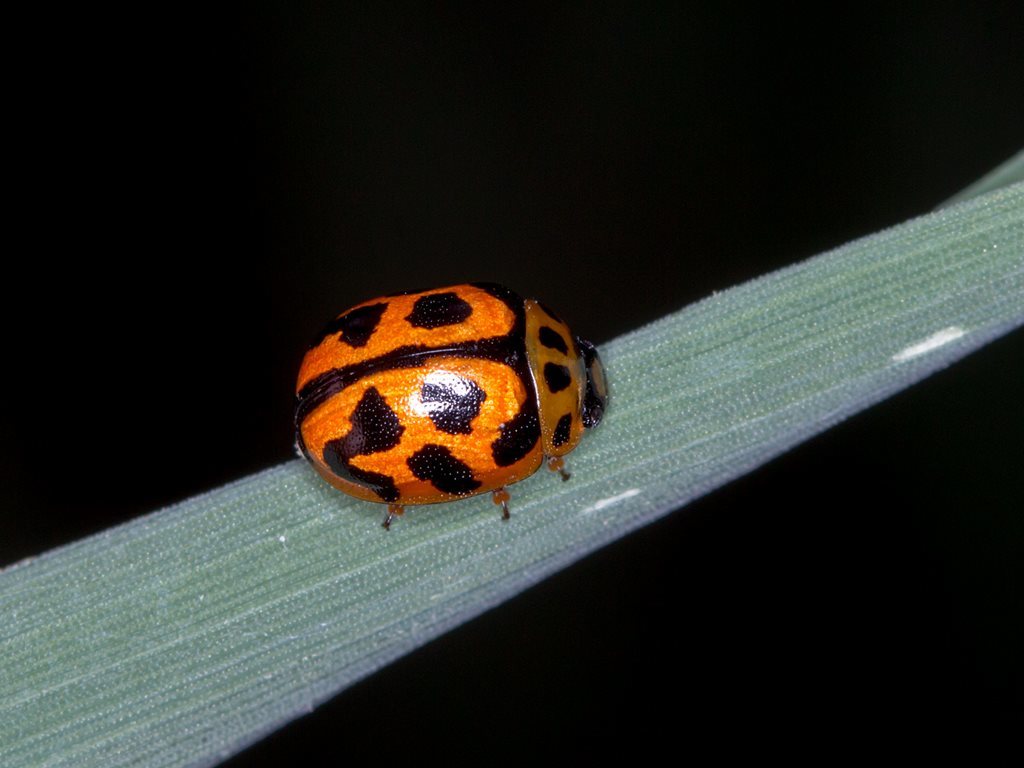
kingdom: Animalia
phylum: Arthropoda
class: Insecta
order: Coleoptera
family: Chrysomelidae
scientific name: Chrysomelidae
